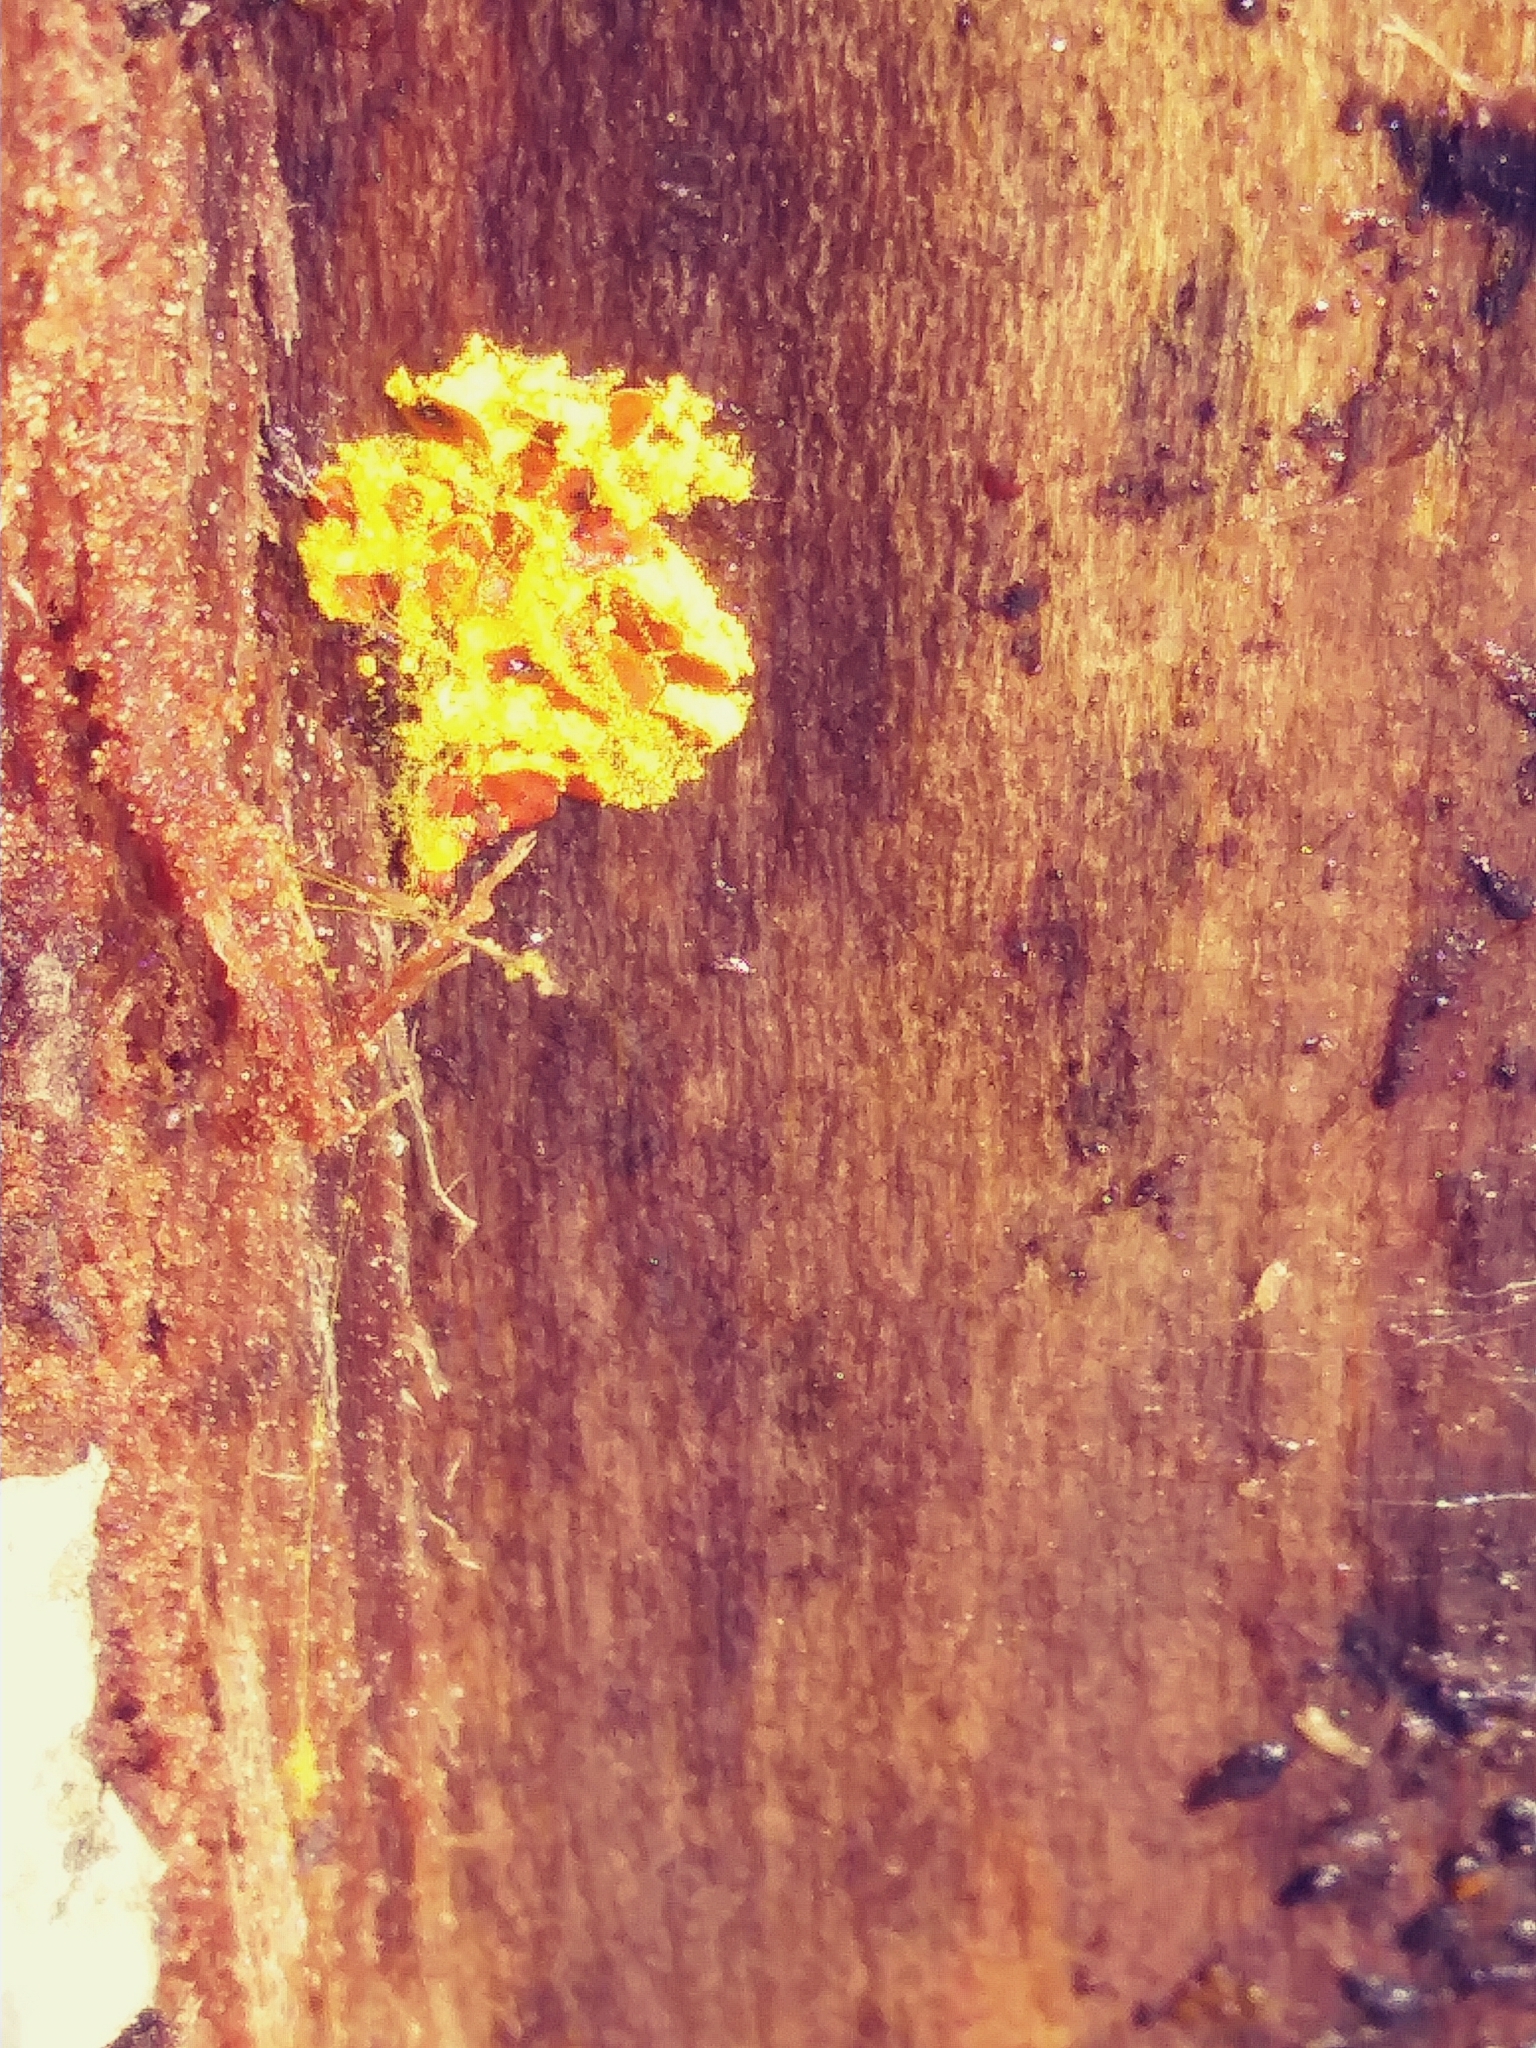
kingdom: Protozoa
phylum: Mycetozoa
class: Myxomycetes
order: Trichiales
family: Trichiaceae
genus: Perichaena
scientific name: Perichaena corticalis
